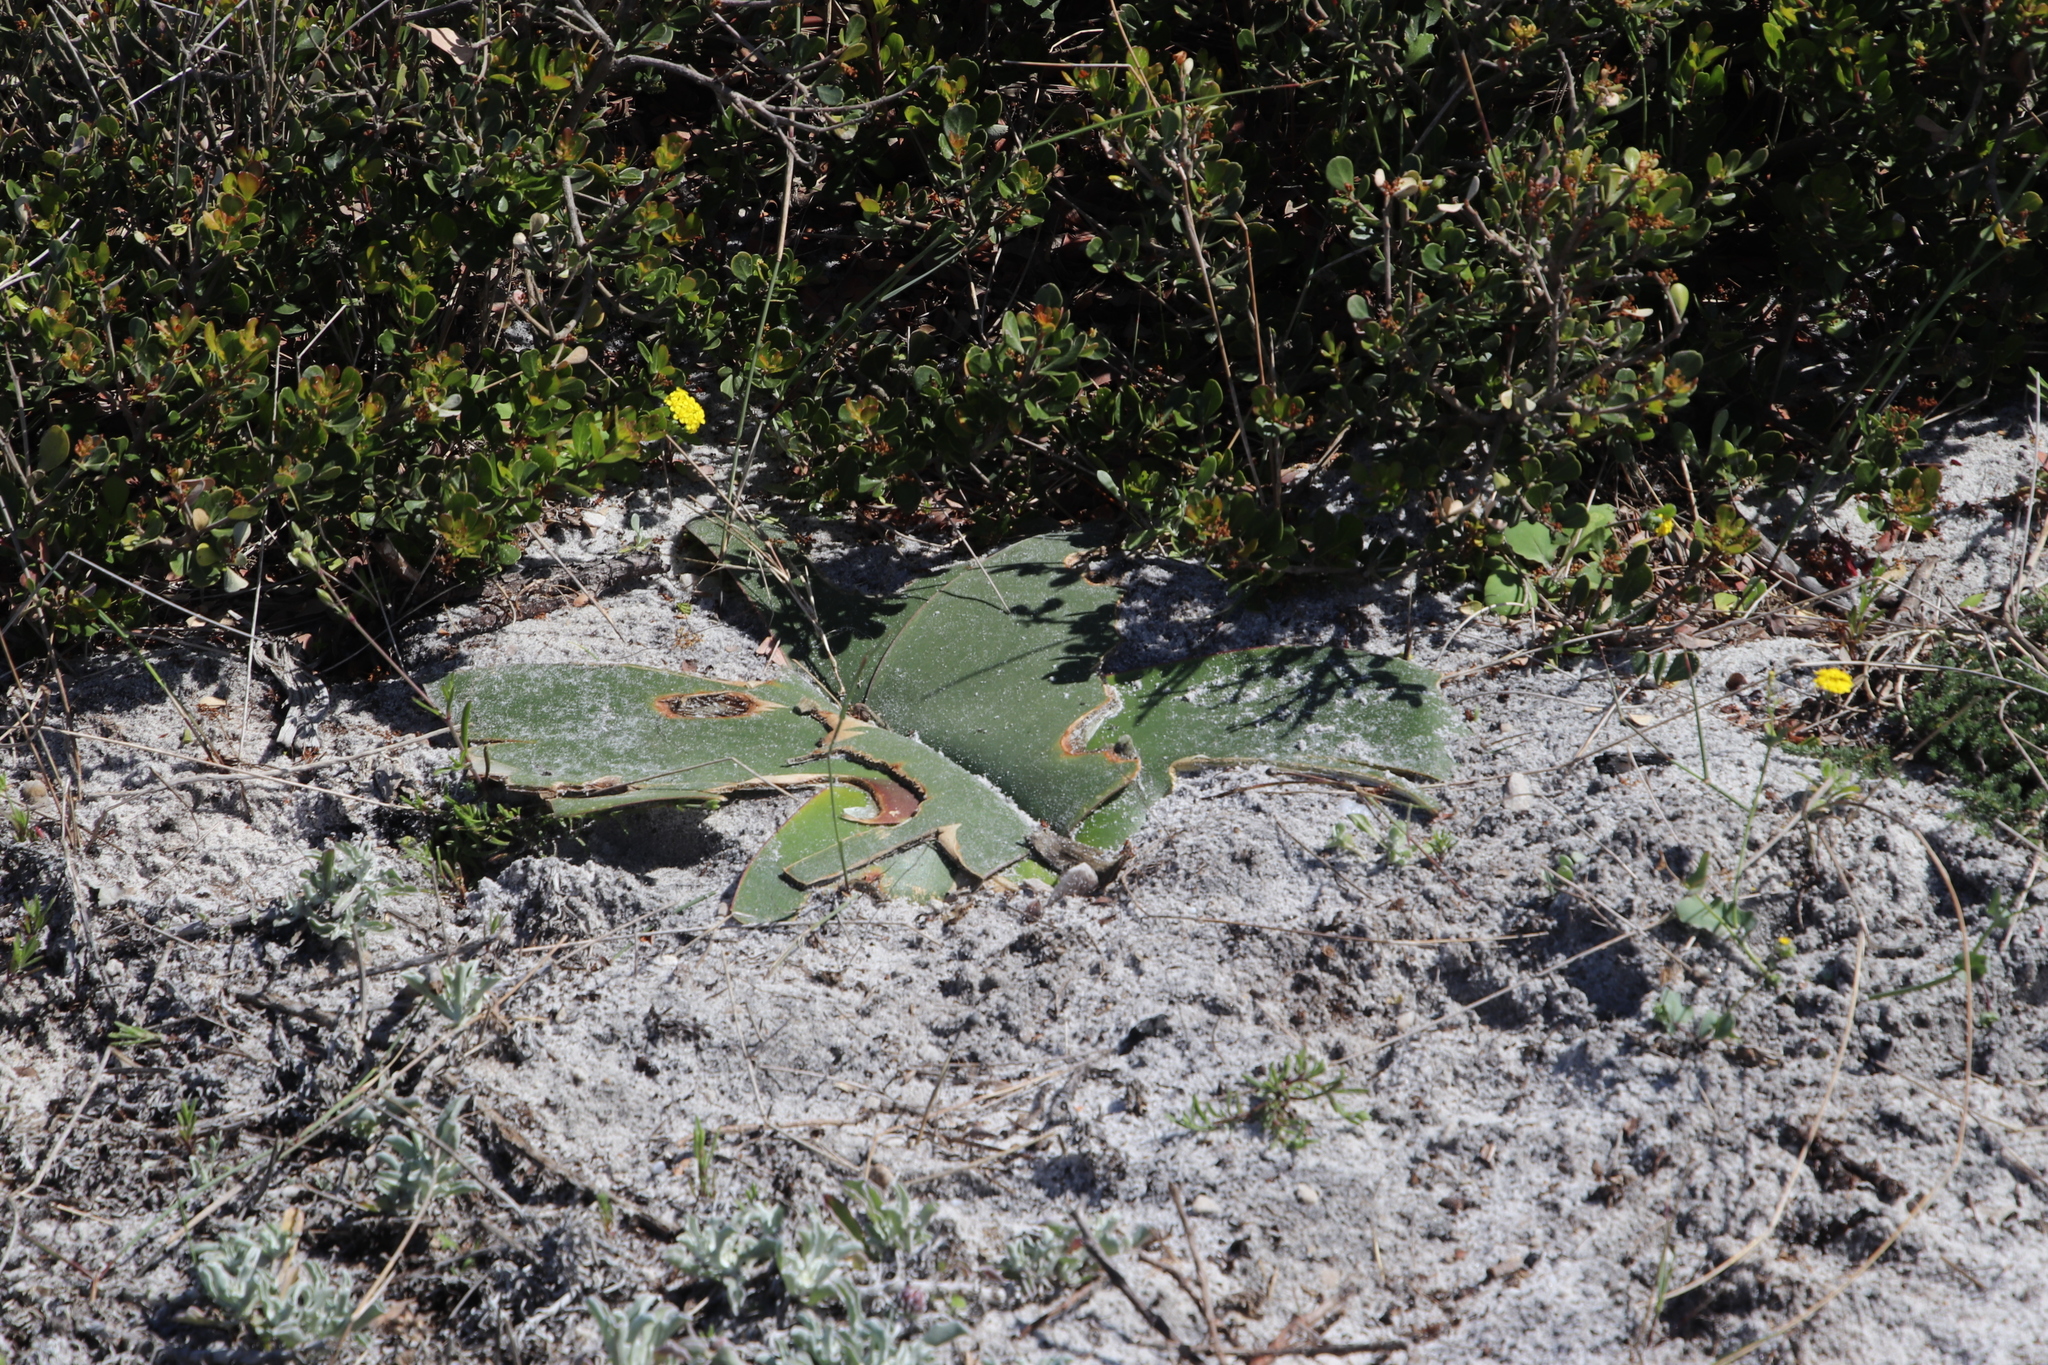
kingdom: Plantae
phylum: Tracheophyta
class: Liliopsida
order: Asparagales
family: Amaryllidaceae
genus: Brunsvigia
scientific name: Brunsvigia orientalis
